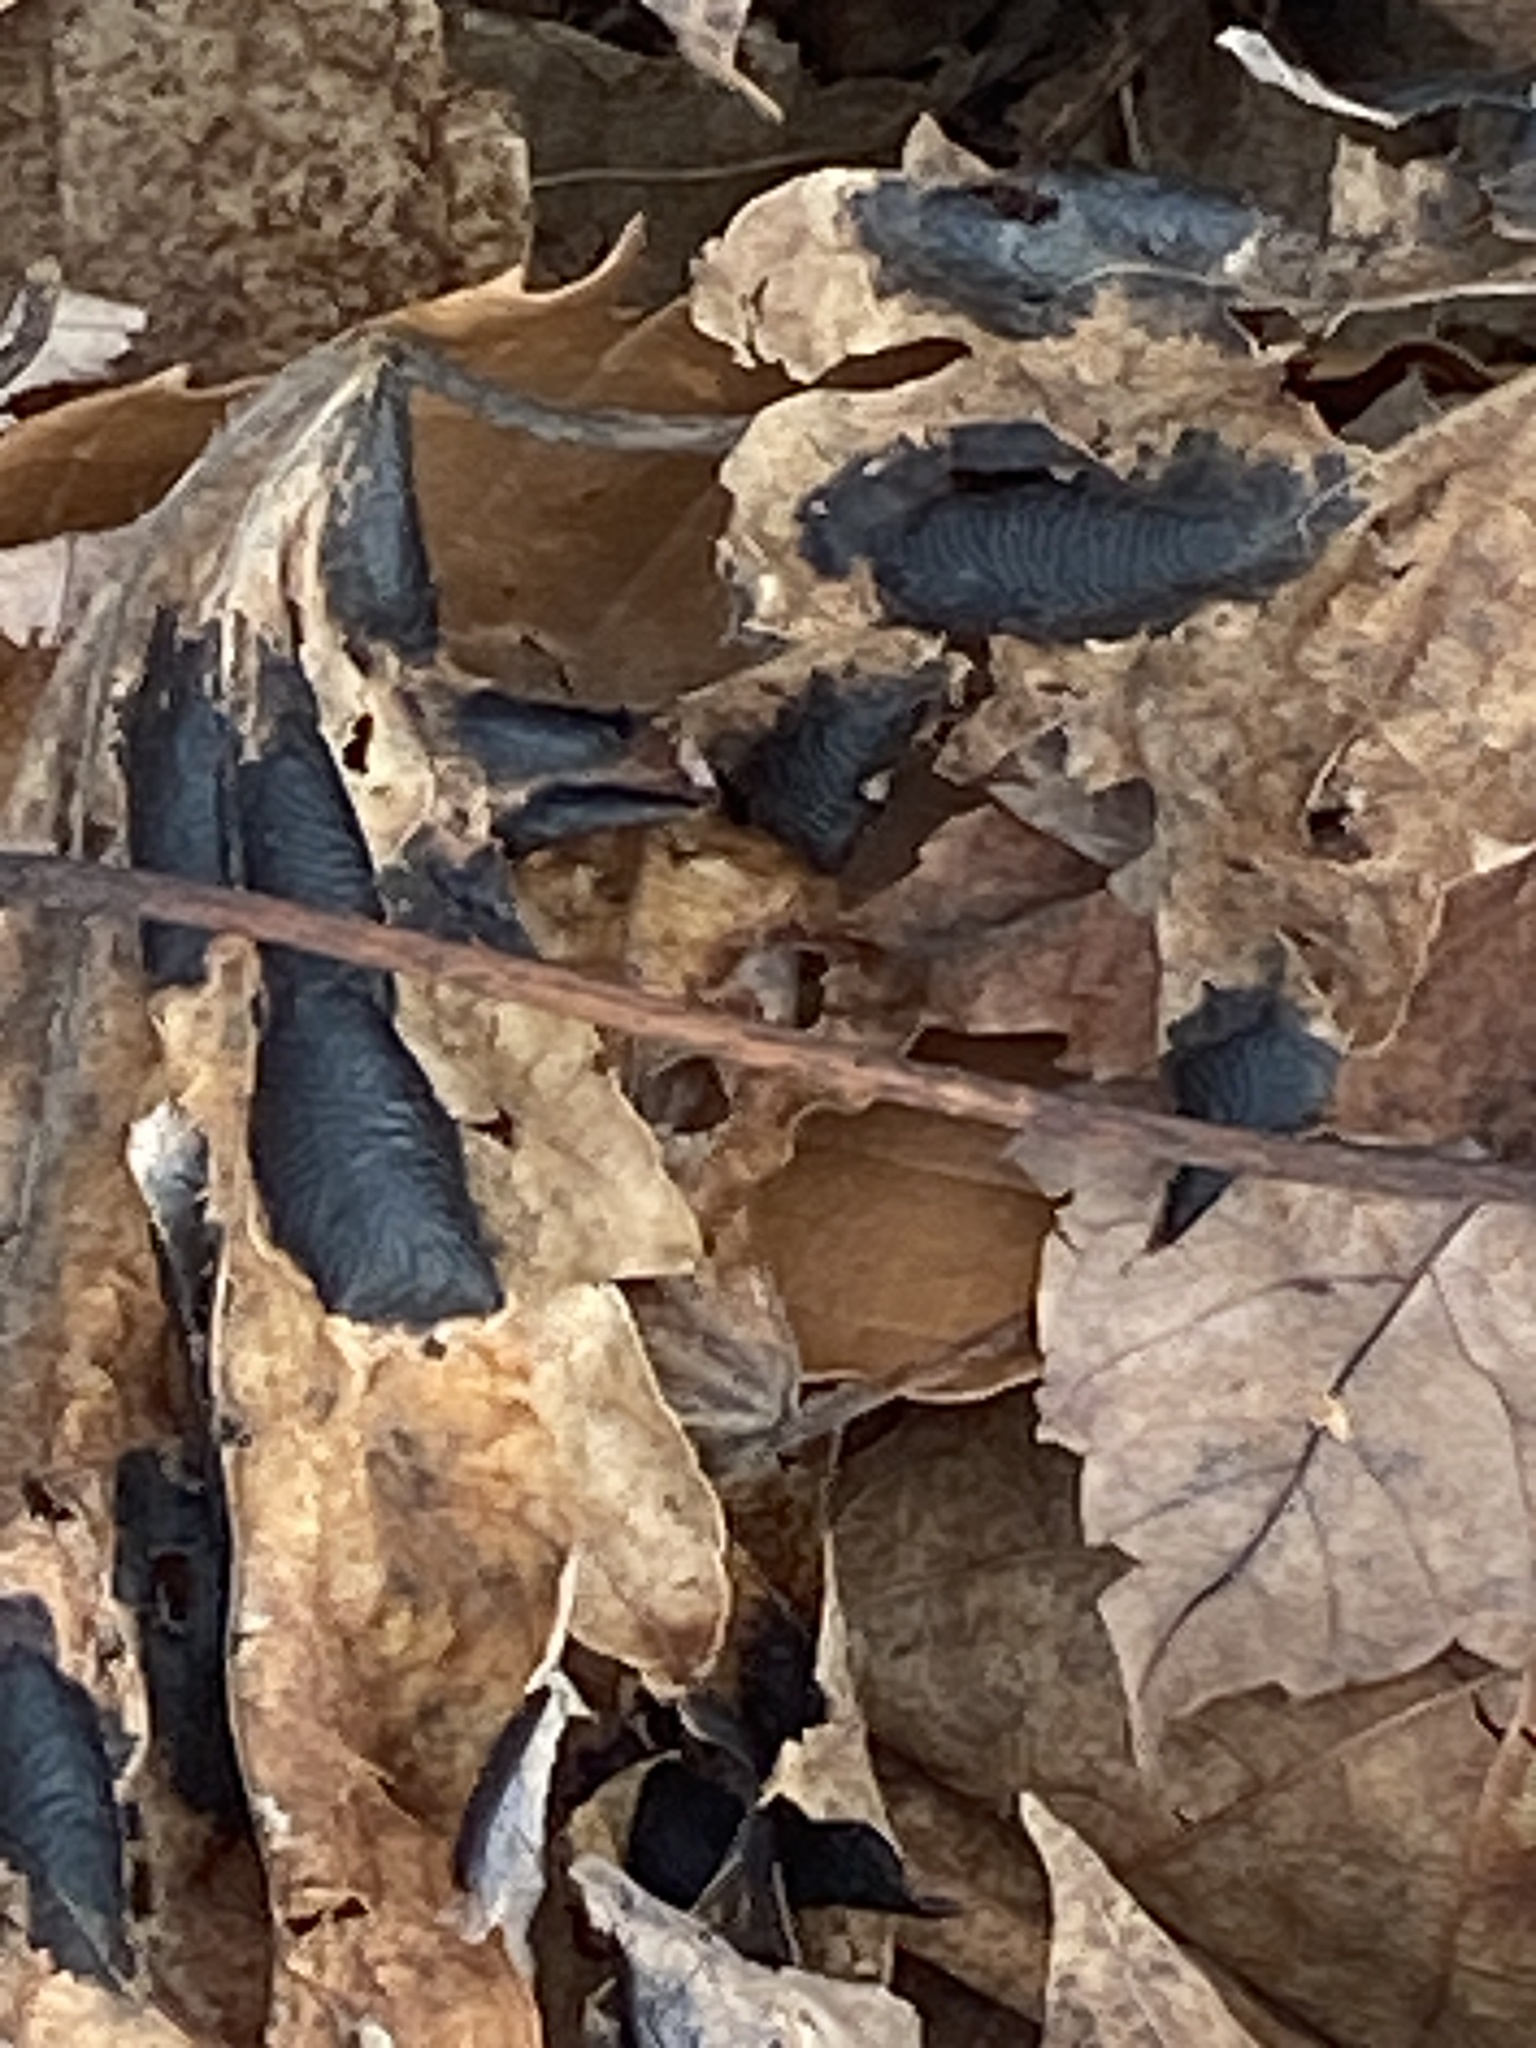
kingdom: Fungi
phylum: Ascomycota
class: Leotiomycetes
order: Rhytismatales
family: Rhytismataceae
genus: Rhytisma
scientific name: Rhytisma americanum
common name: American tar spot
